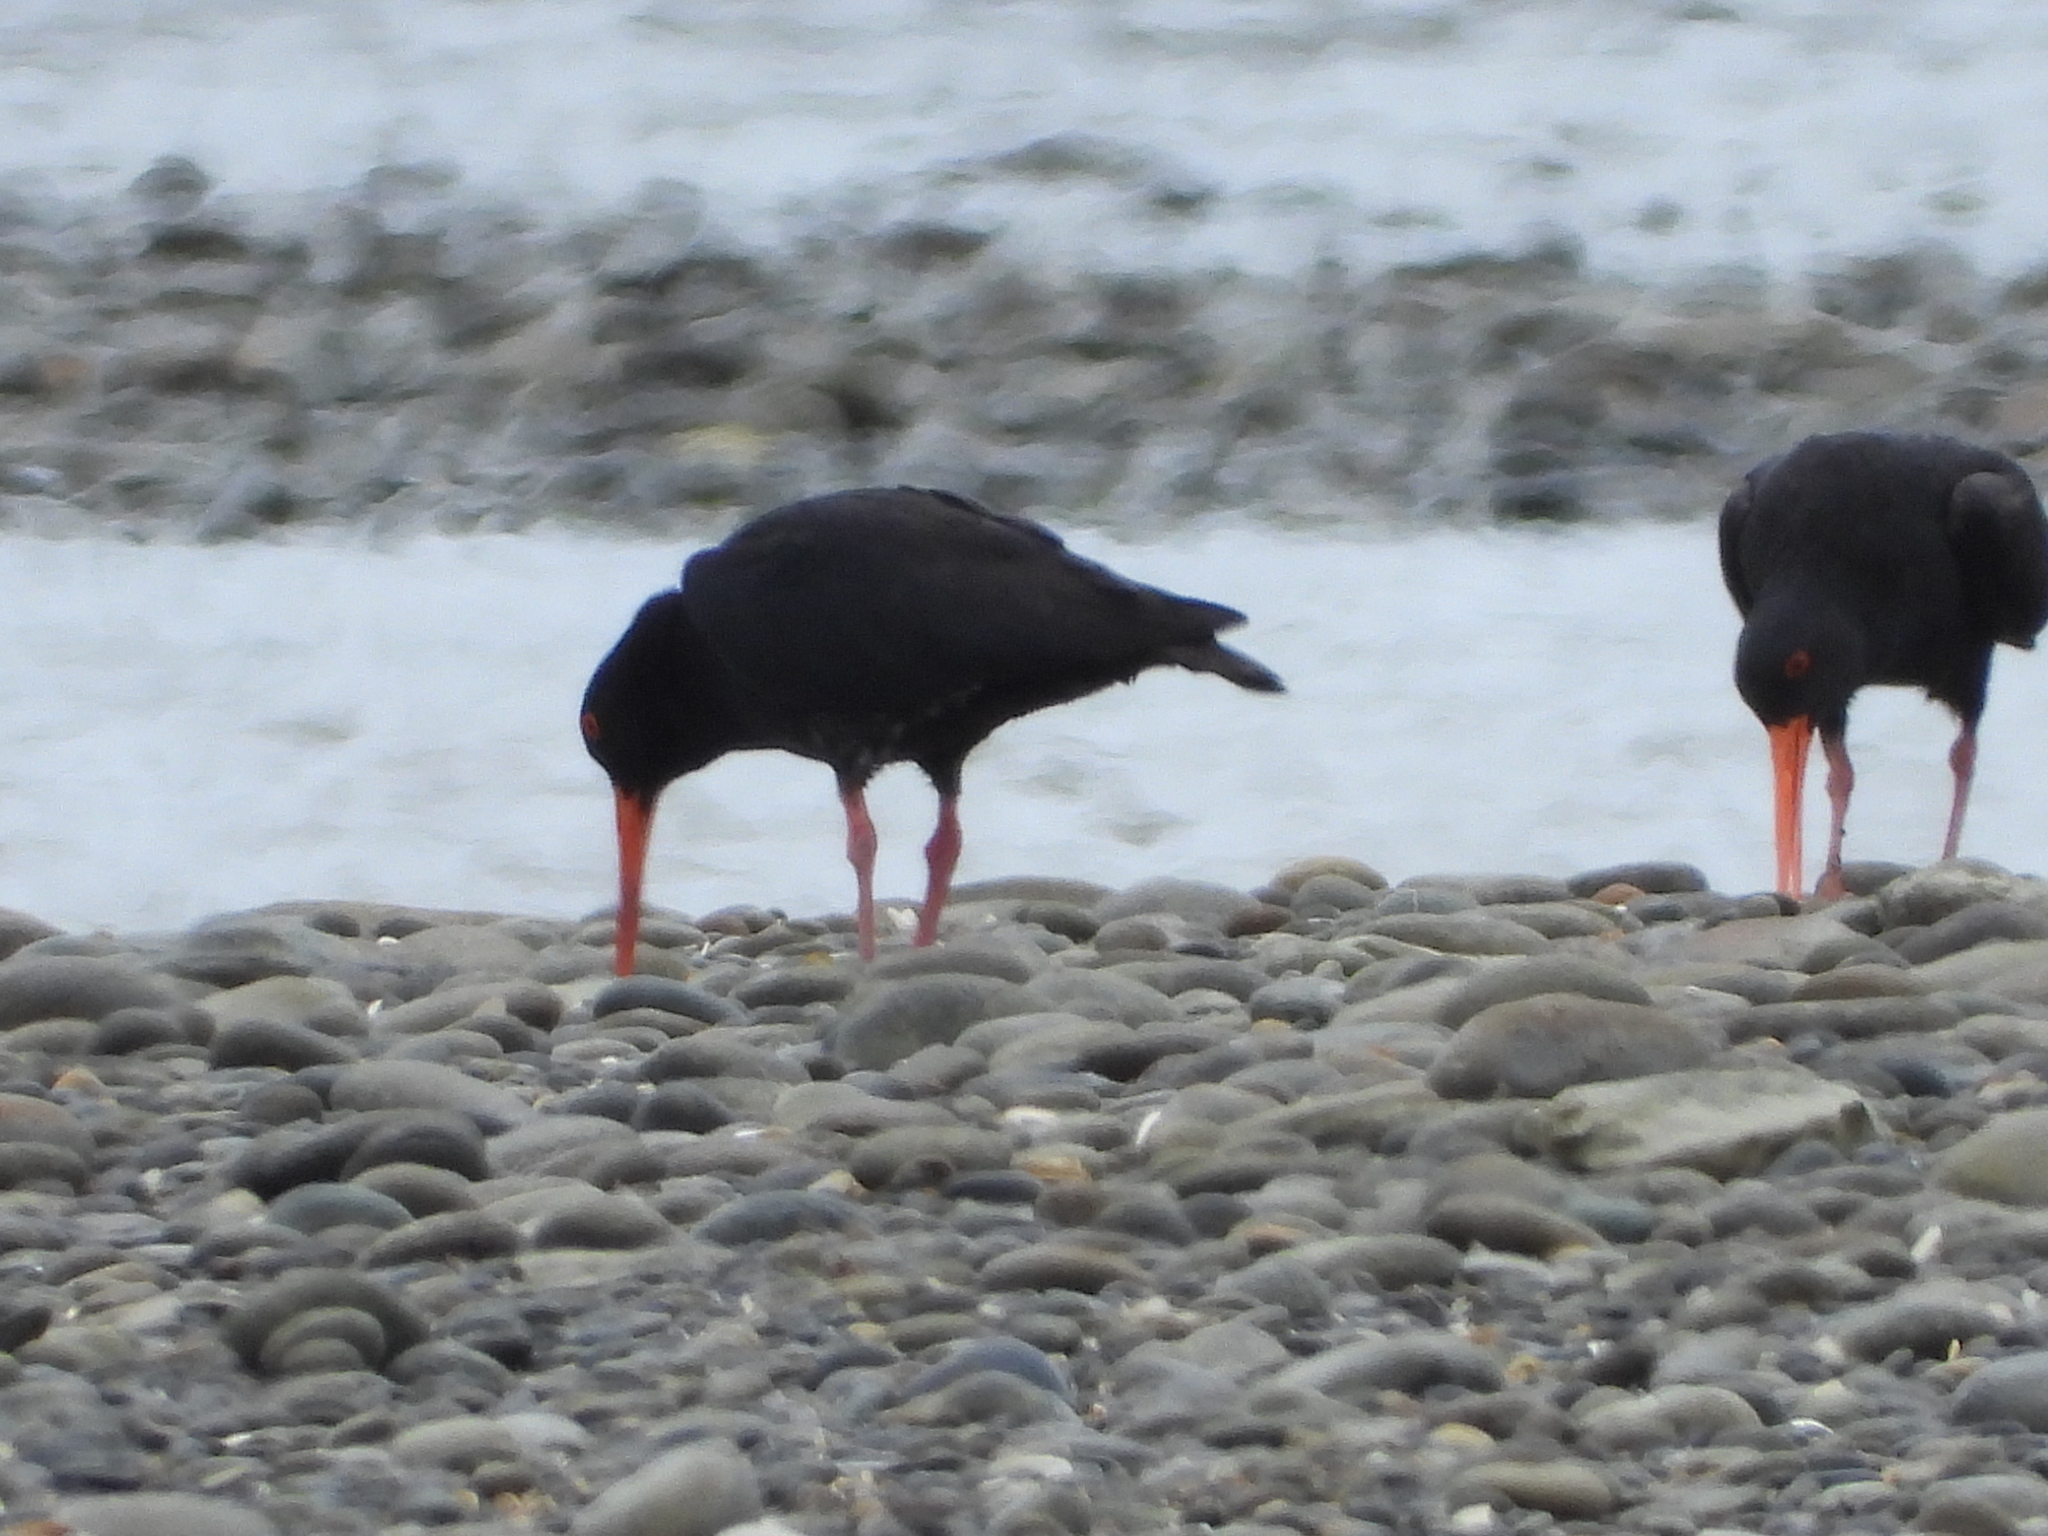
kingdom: Animalia
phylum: Chordata
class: Aves
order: Charadriiformes
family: Haematopodidae
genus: Haematopus
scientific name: Haematopus unicolor
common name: Variable oystercatcher
